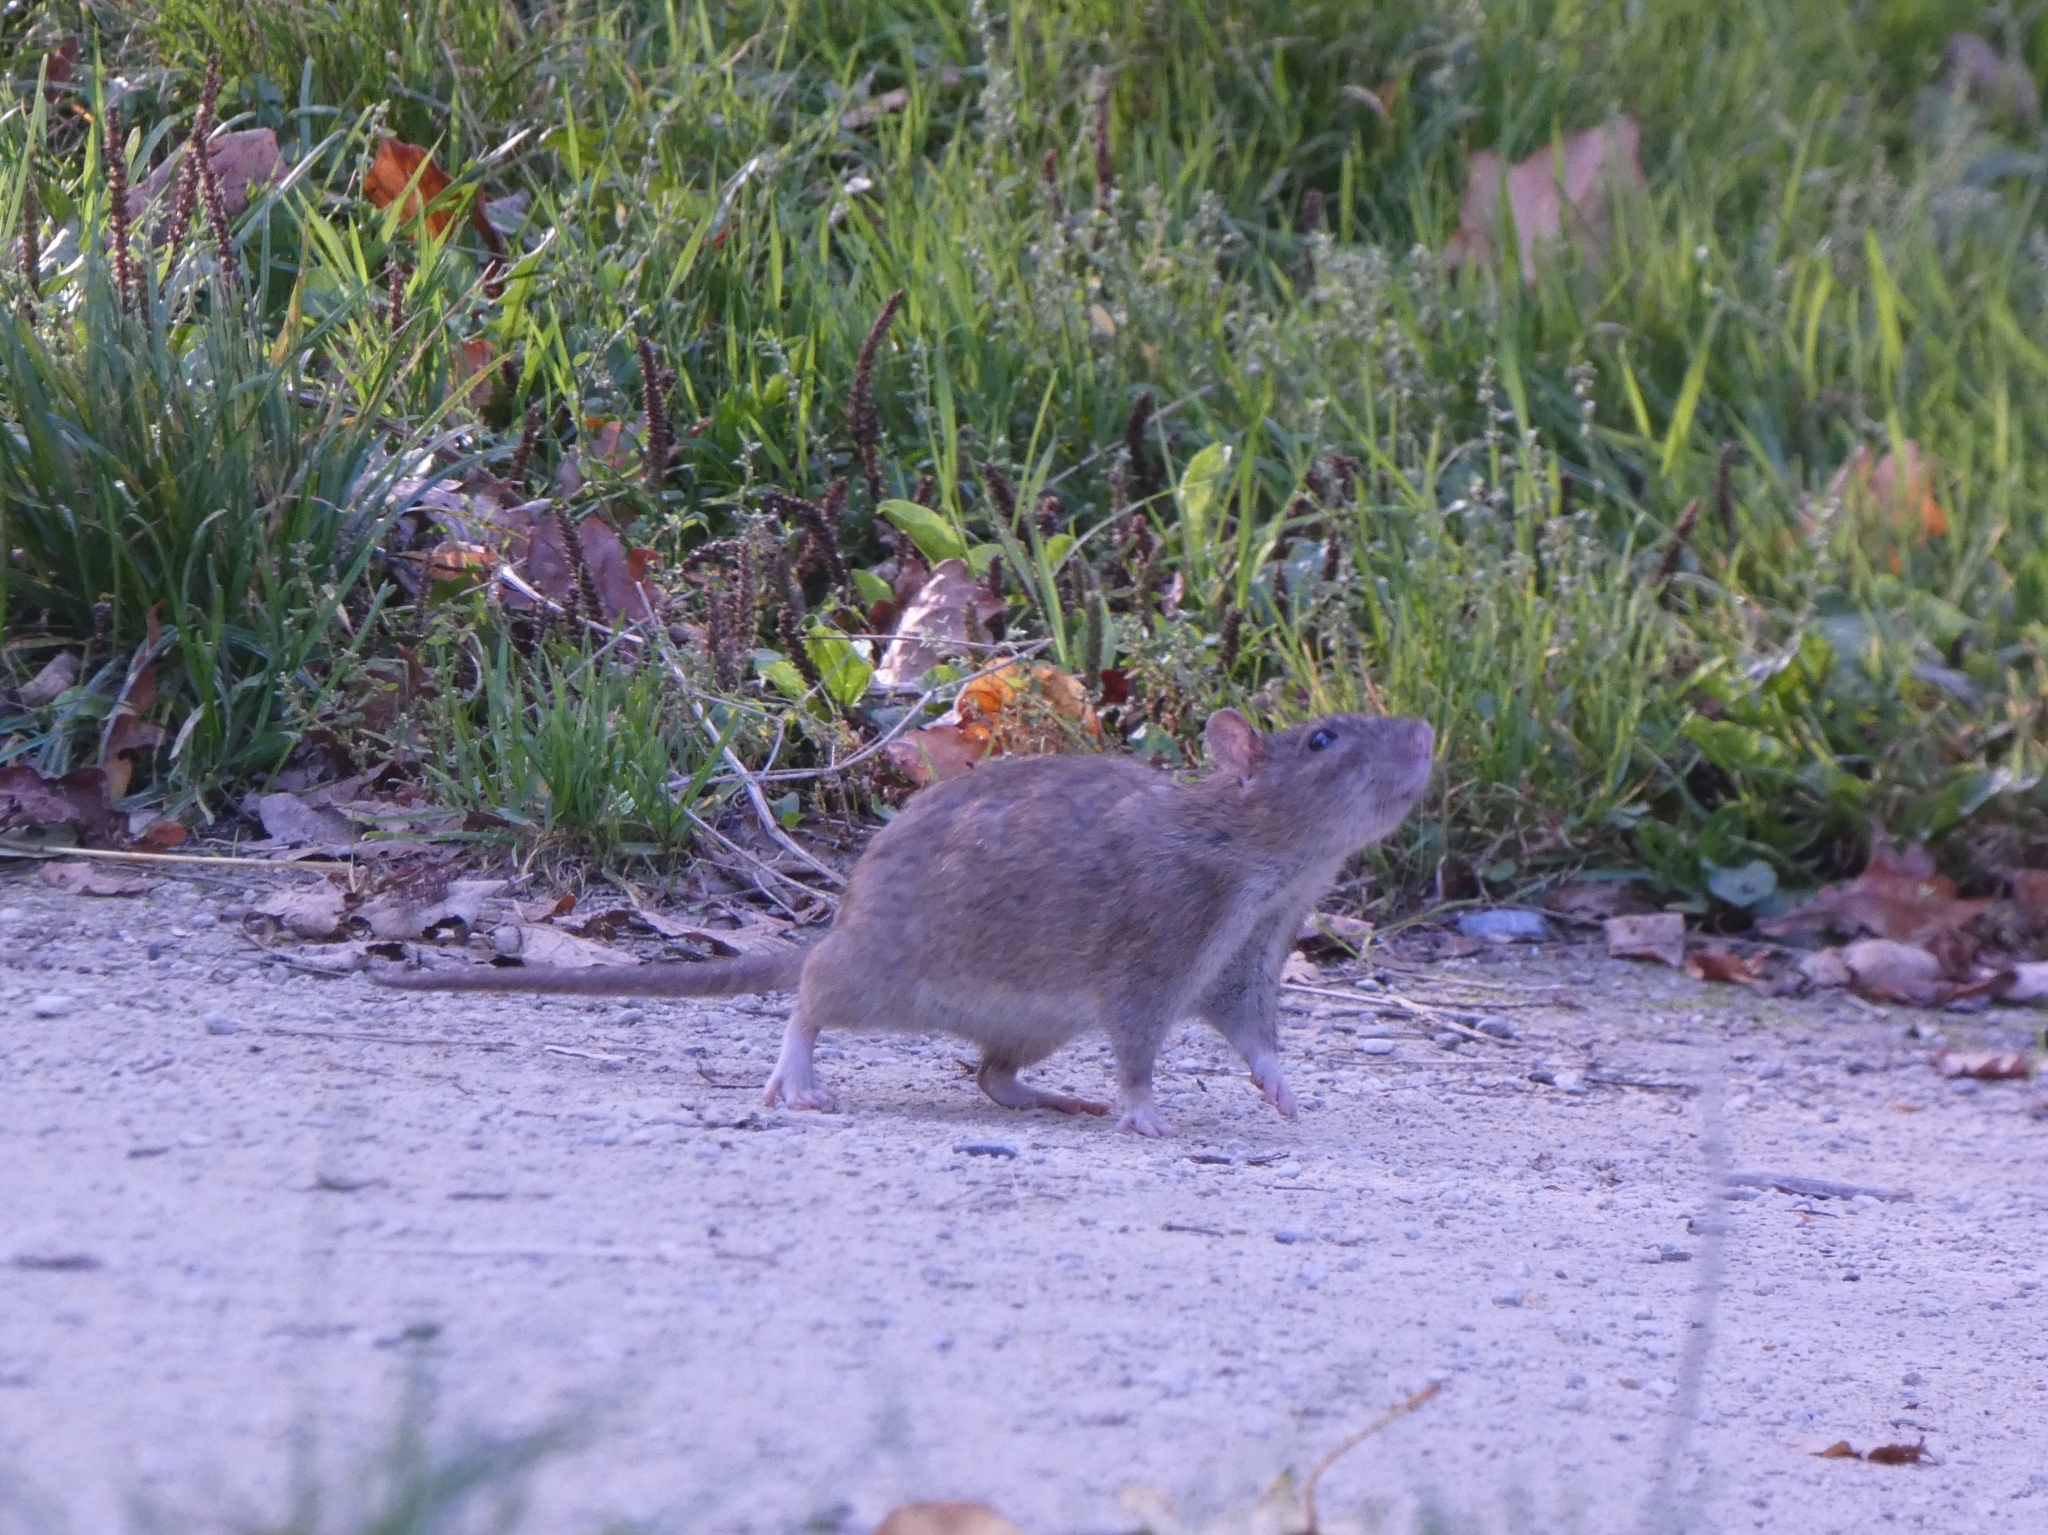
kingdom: Animalia
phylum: Chordata
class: Mammalia
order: Rodentia
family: Muridae
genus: Rattus
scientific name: Rattus norvegicus
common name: Brown rat
